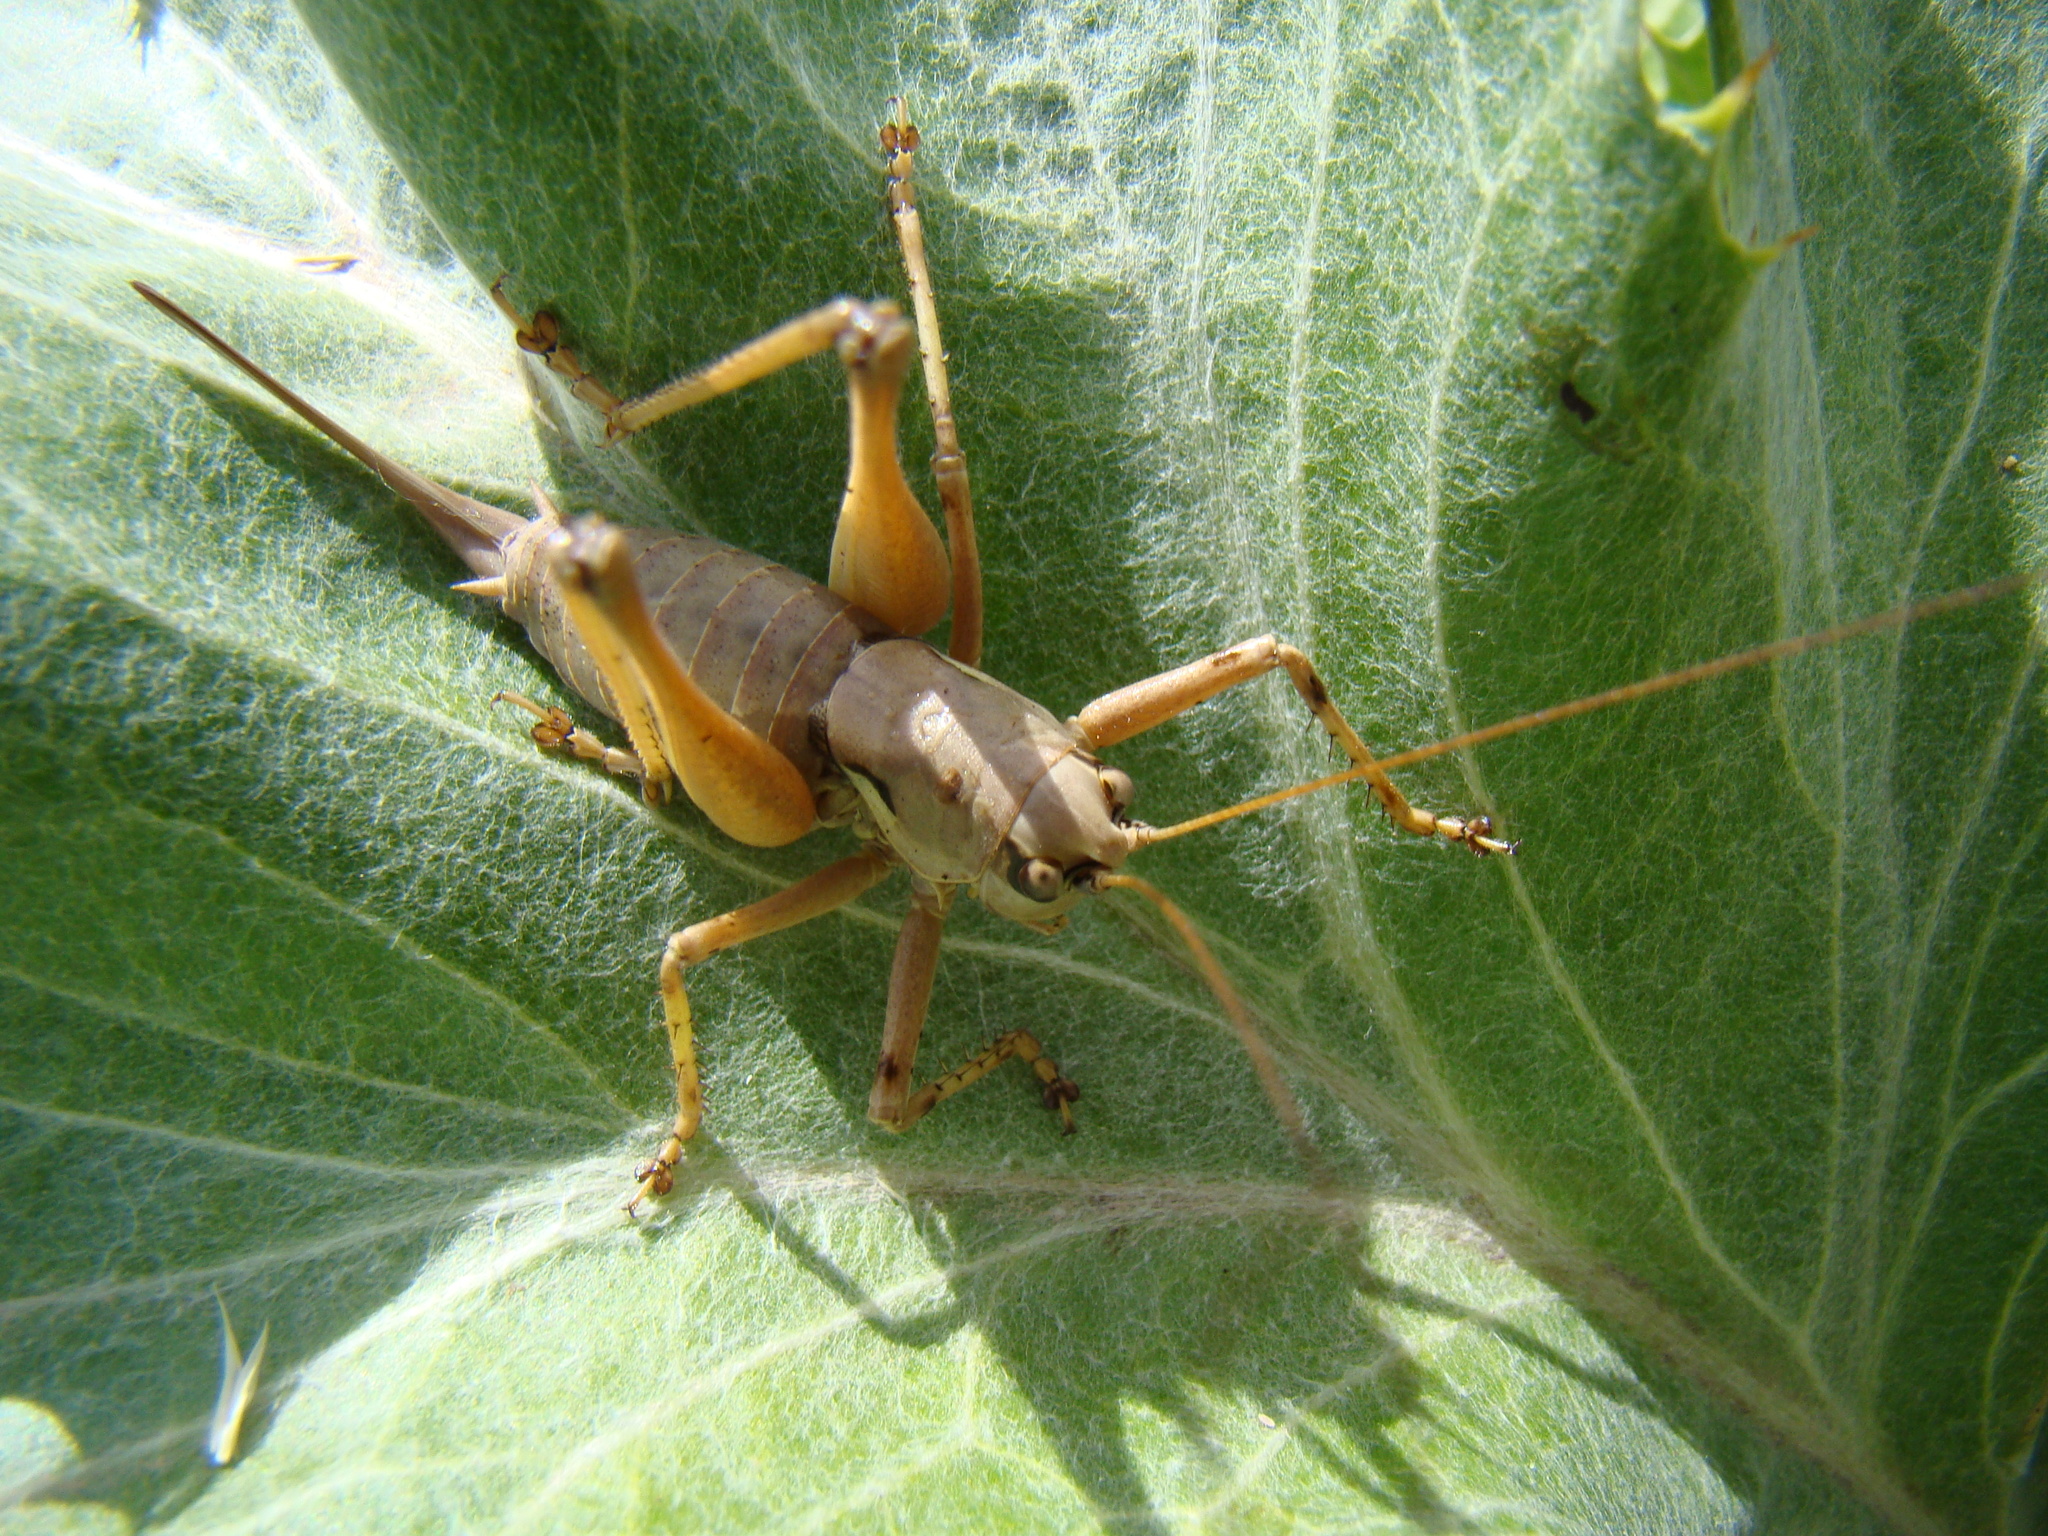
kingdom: Animalia
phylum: Arthropoda
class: Insecta
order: Orthoptera
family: Tettigoniidae
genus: Antaxius
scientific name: Antaxius pedestris
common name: Common mountain bush-cricket
